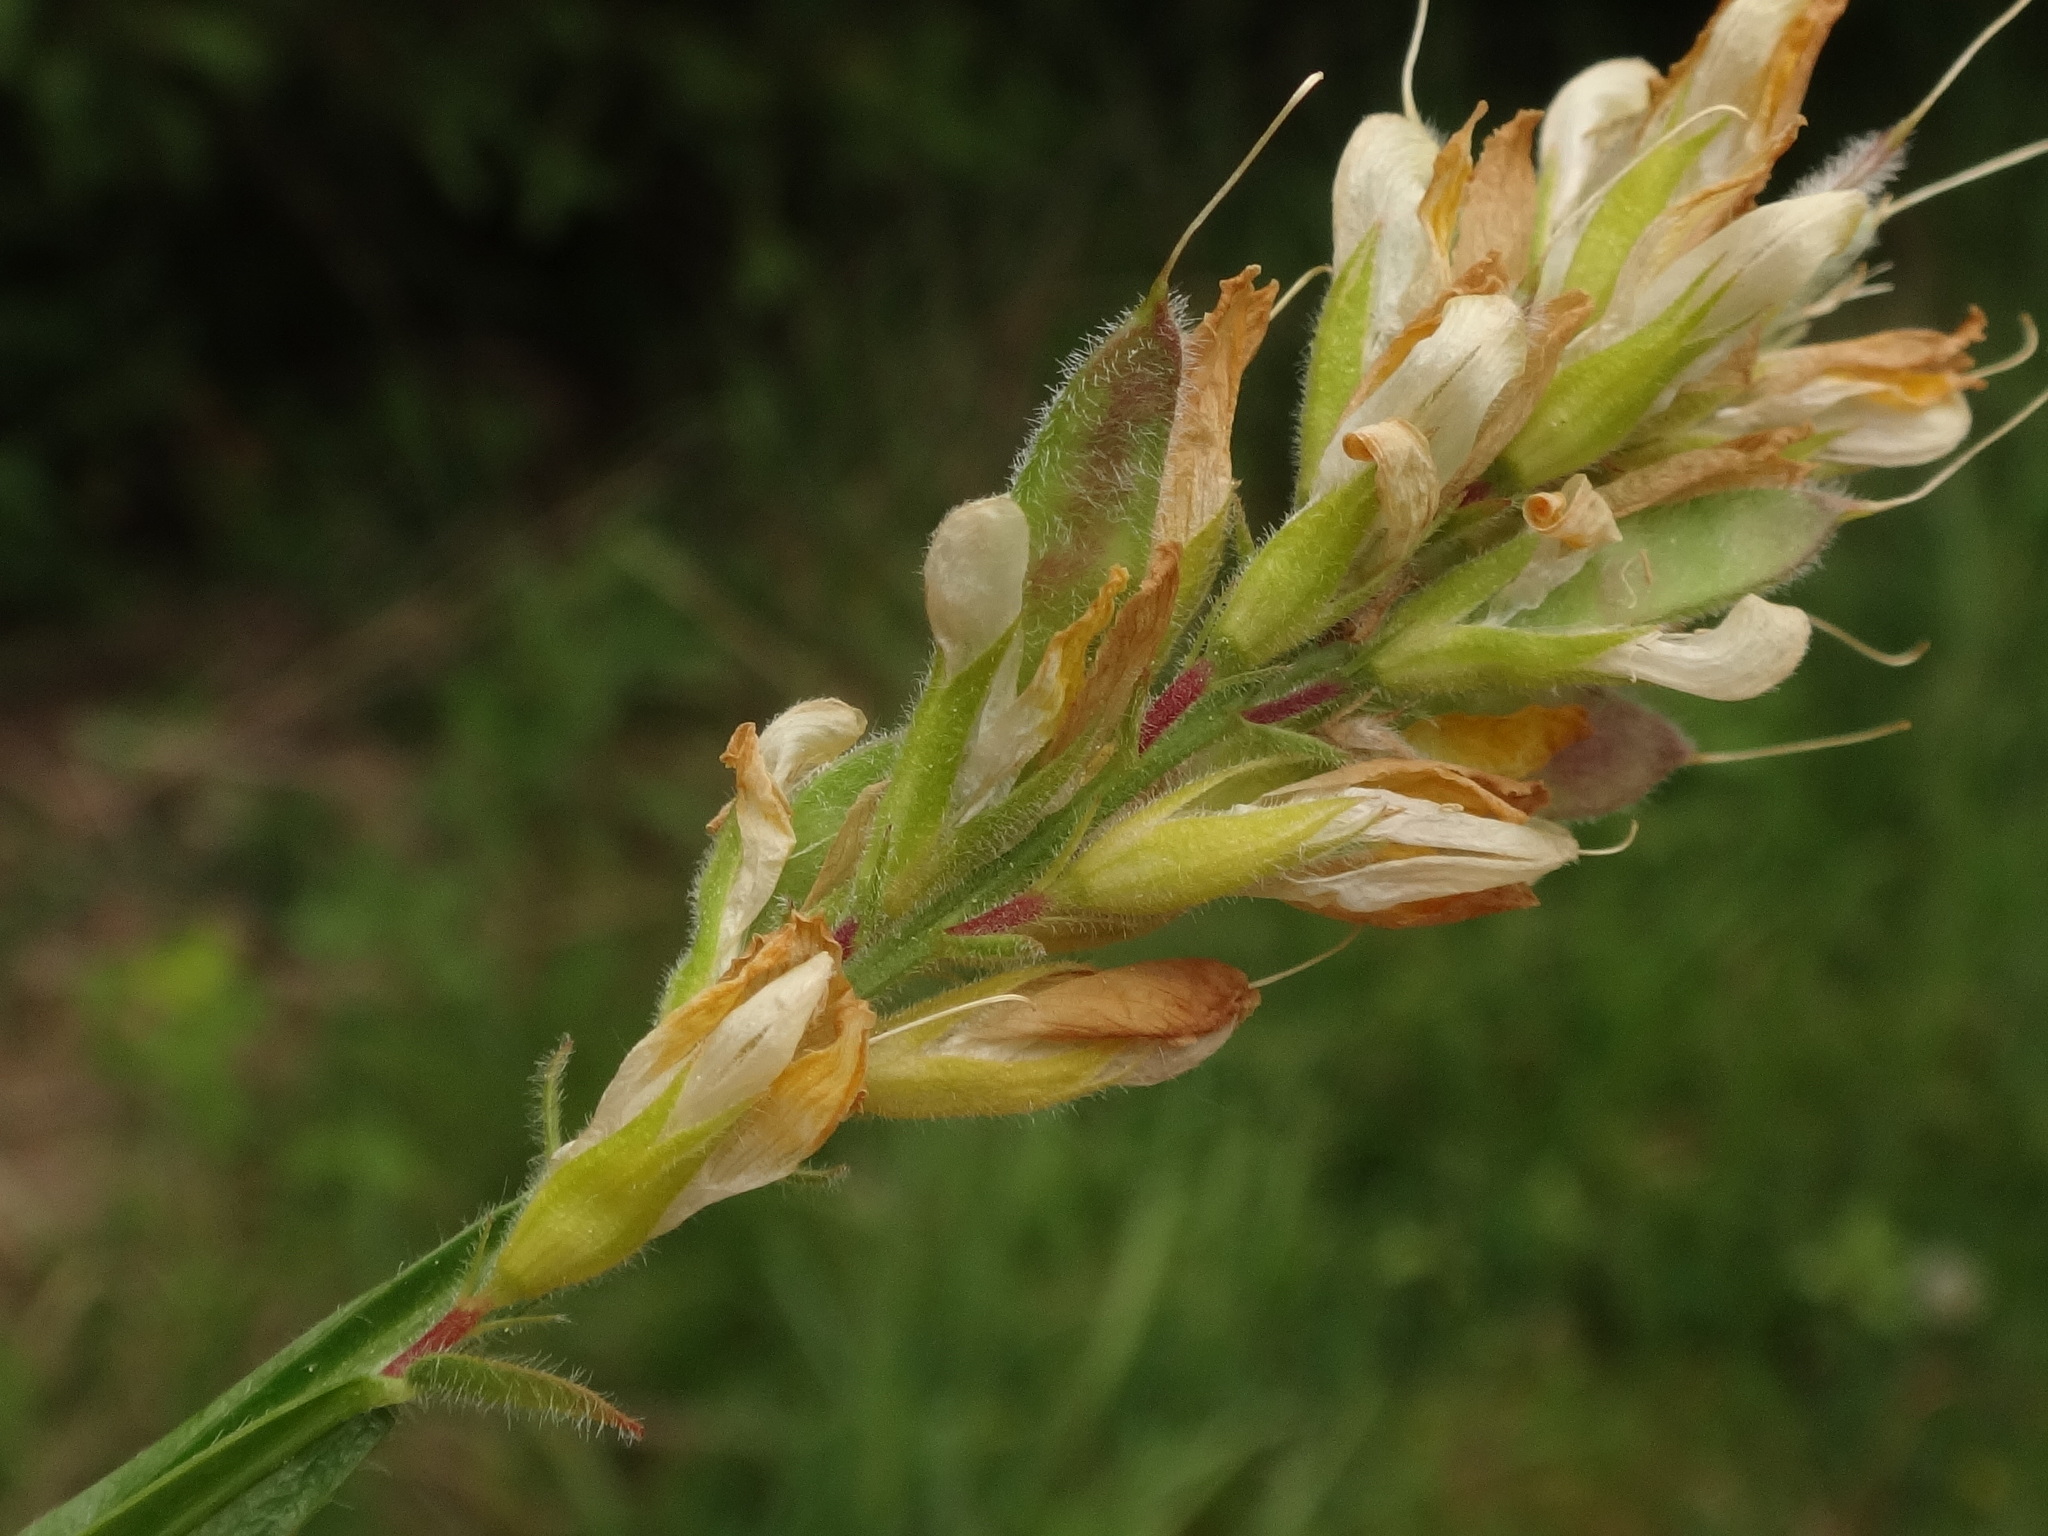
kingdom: Plantae
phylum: Tracheophyta
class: Magnoliopsida
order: Fabales
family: Fabaceae
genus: Genista
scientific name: Genista sagittalis
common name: Winged greenweed
